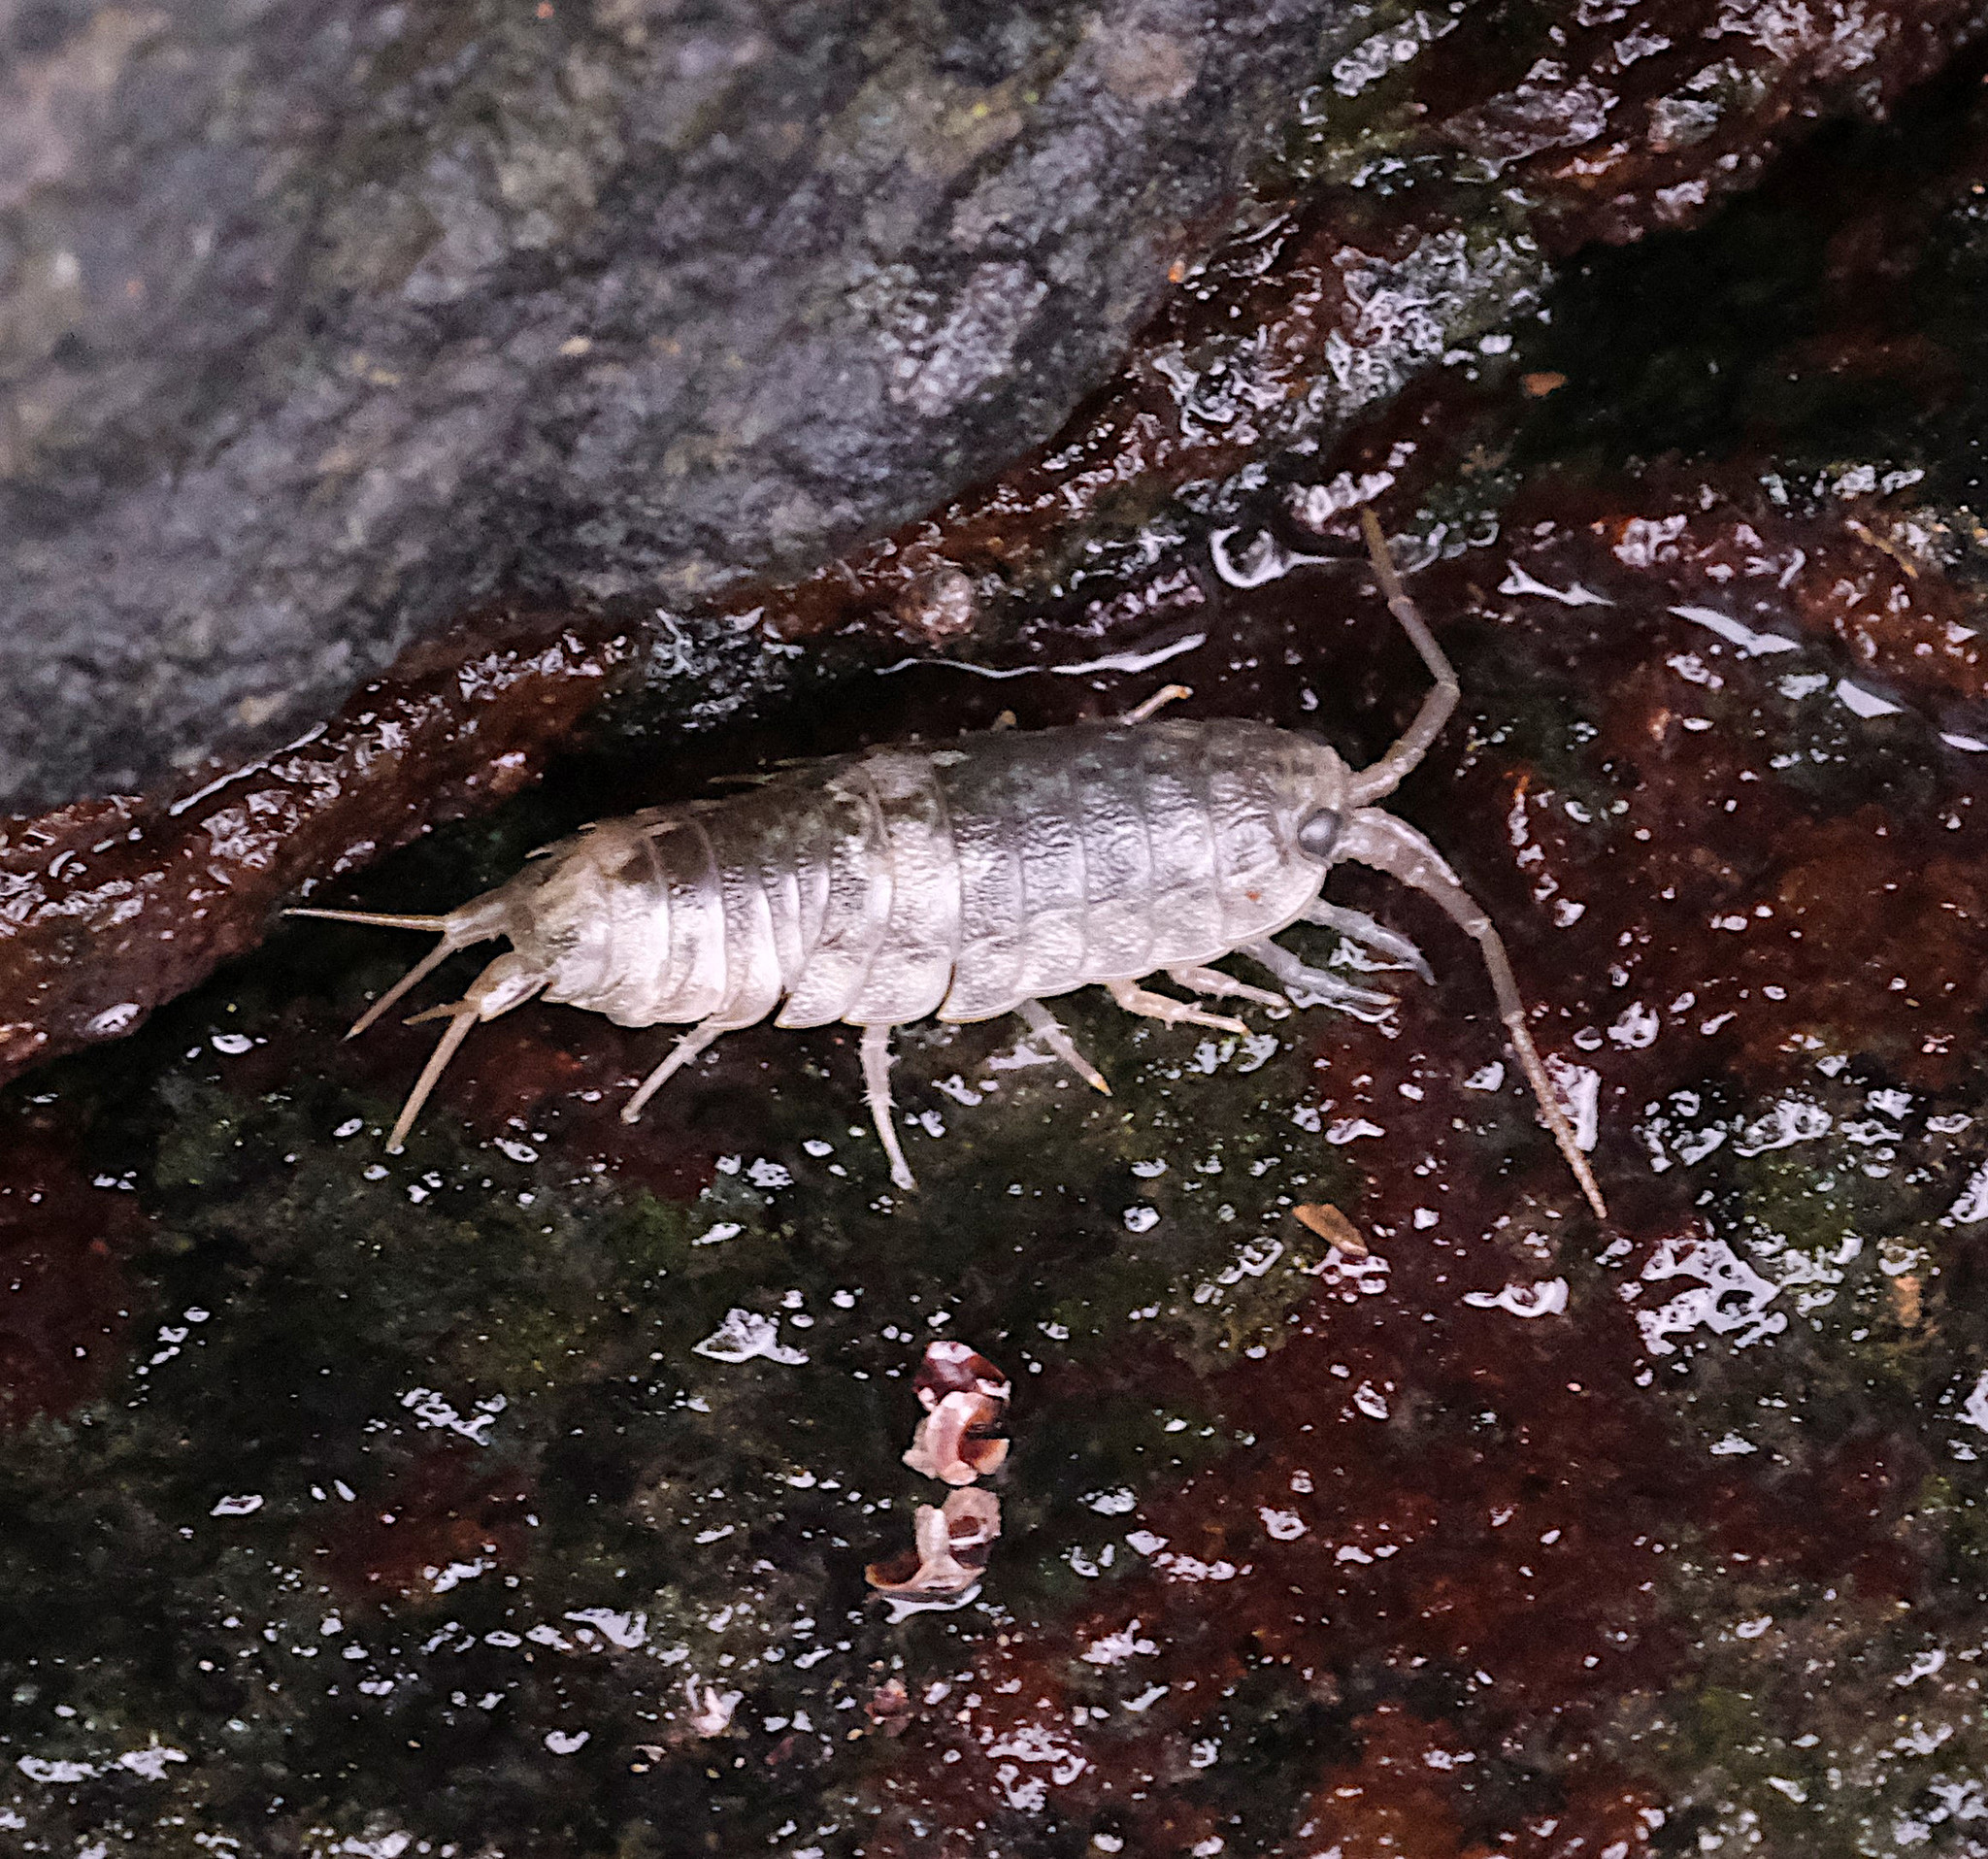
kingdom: Animalia
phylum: Arthropoda
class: Malacostraca
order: Isopoda
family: Ligiidae
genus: Ligia
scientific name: Ligia oceanica
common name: Sea slater
